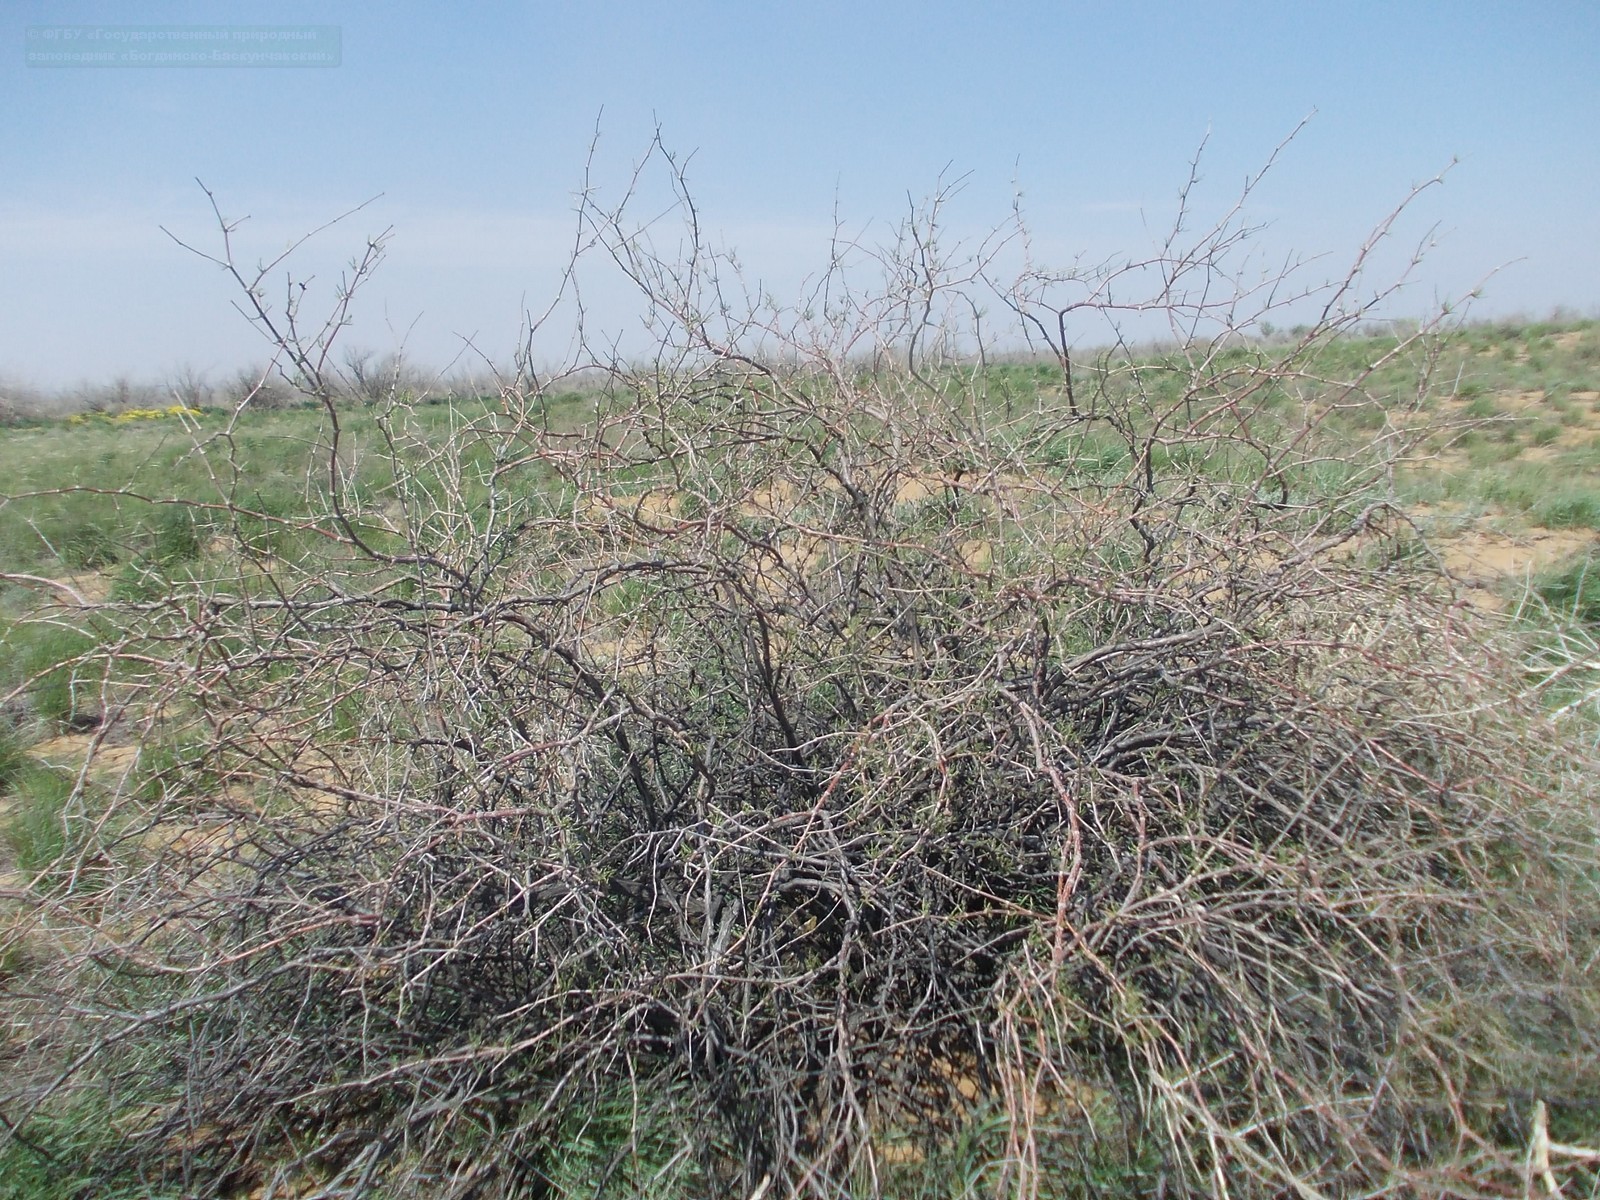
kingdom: Plantae
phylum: Tracheophyta
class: Magnoliopsida
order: Caryophyllales
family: Polygonaceae
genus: Calligonum
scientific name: Calligonum aphyllum
